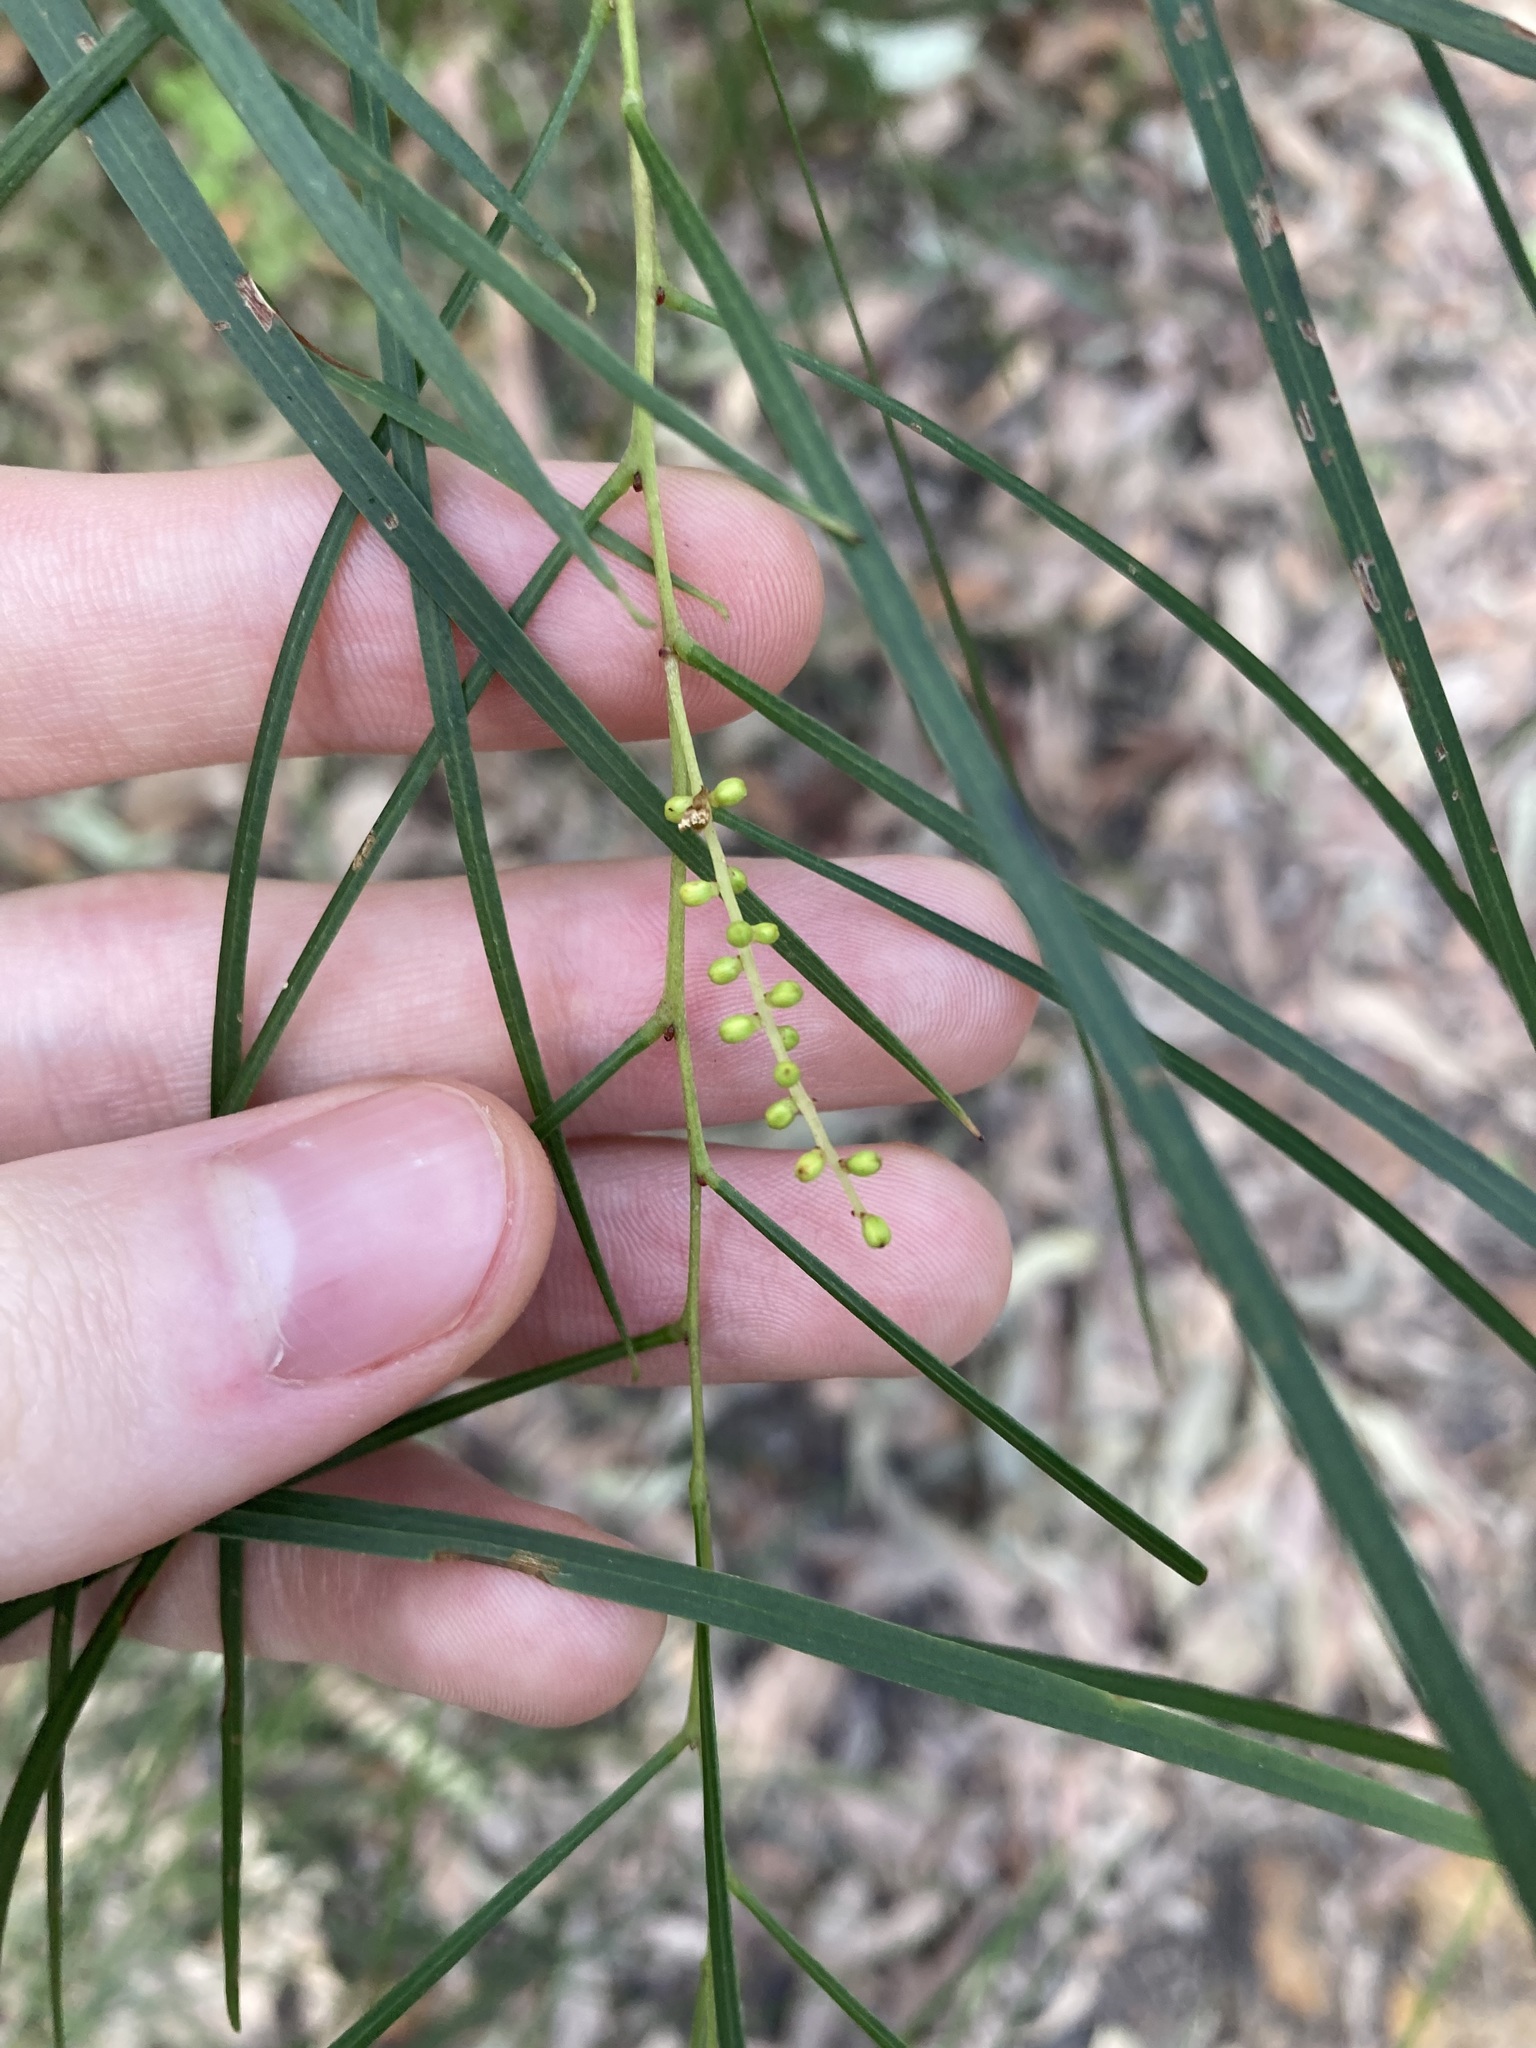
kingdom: Plantae
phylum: Tracheophyta
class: Magnoliopsida
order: Fabales
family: Fabaceae
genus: Acacia
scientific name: Acacia longissima
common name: Longleaf wattle
